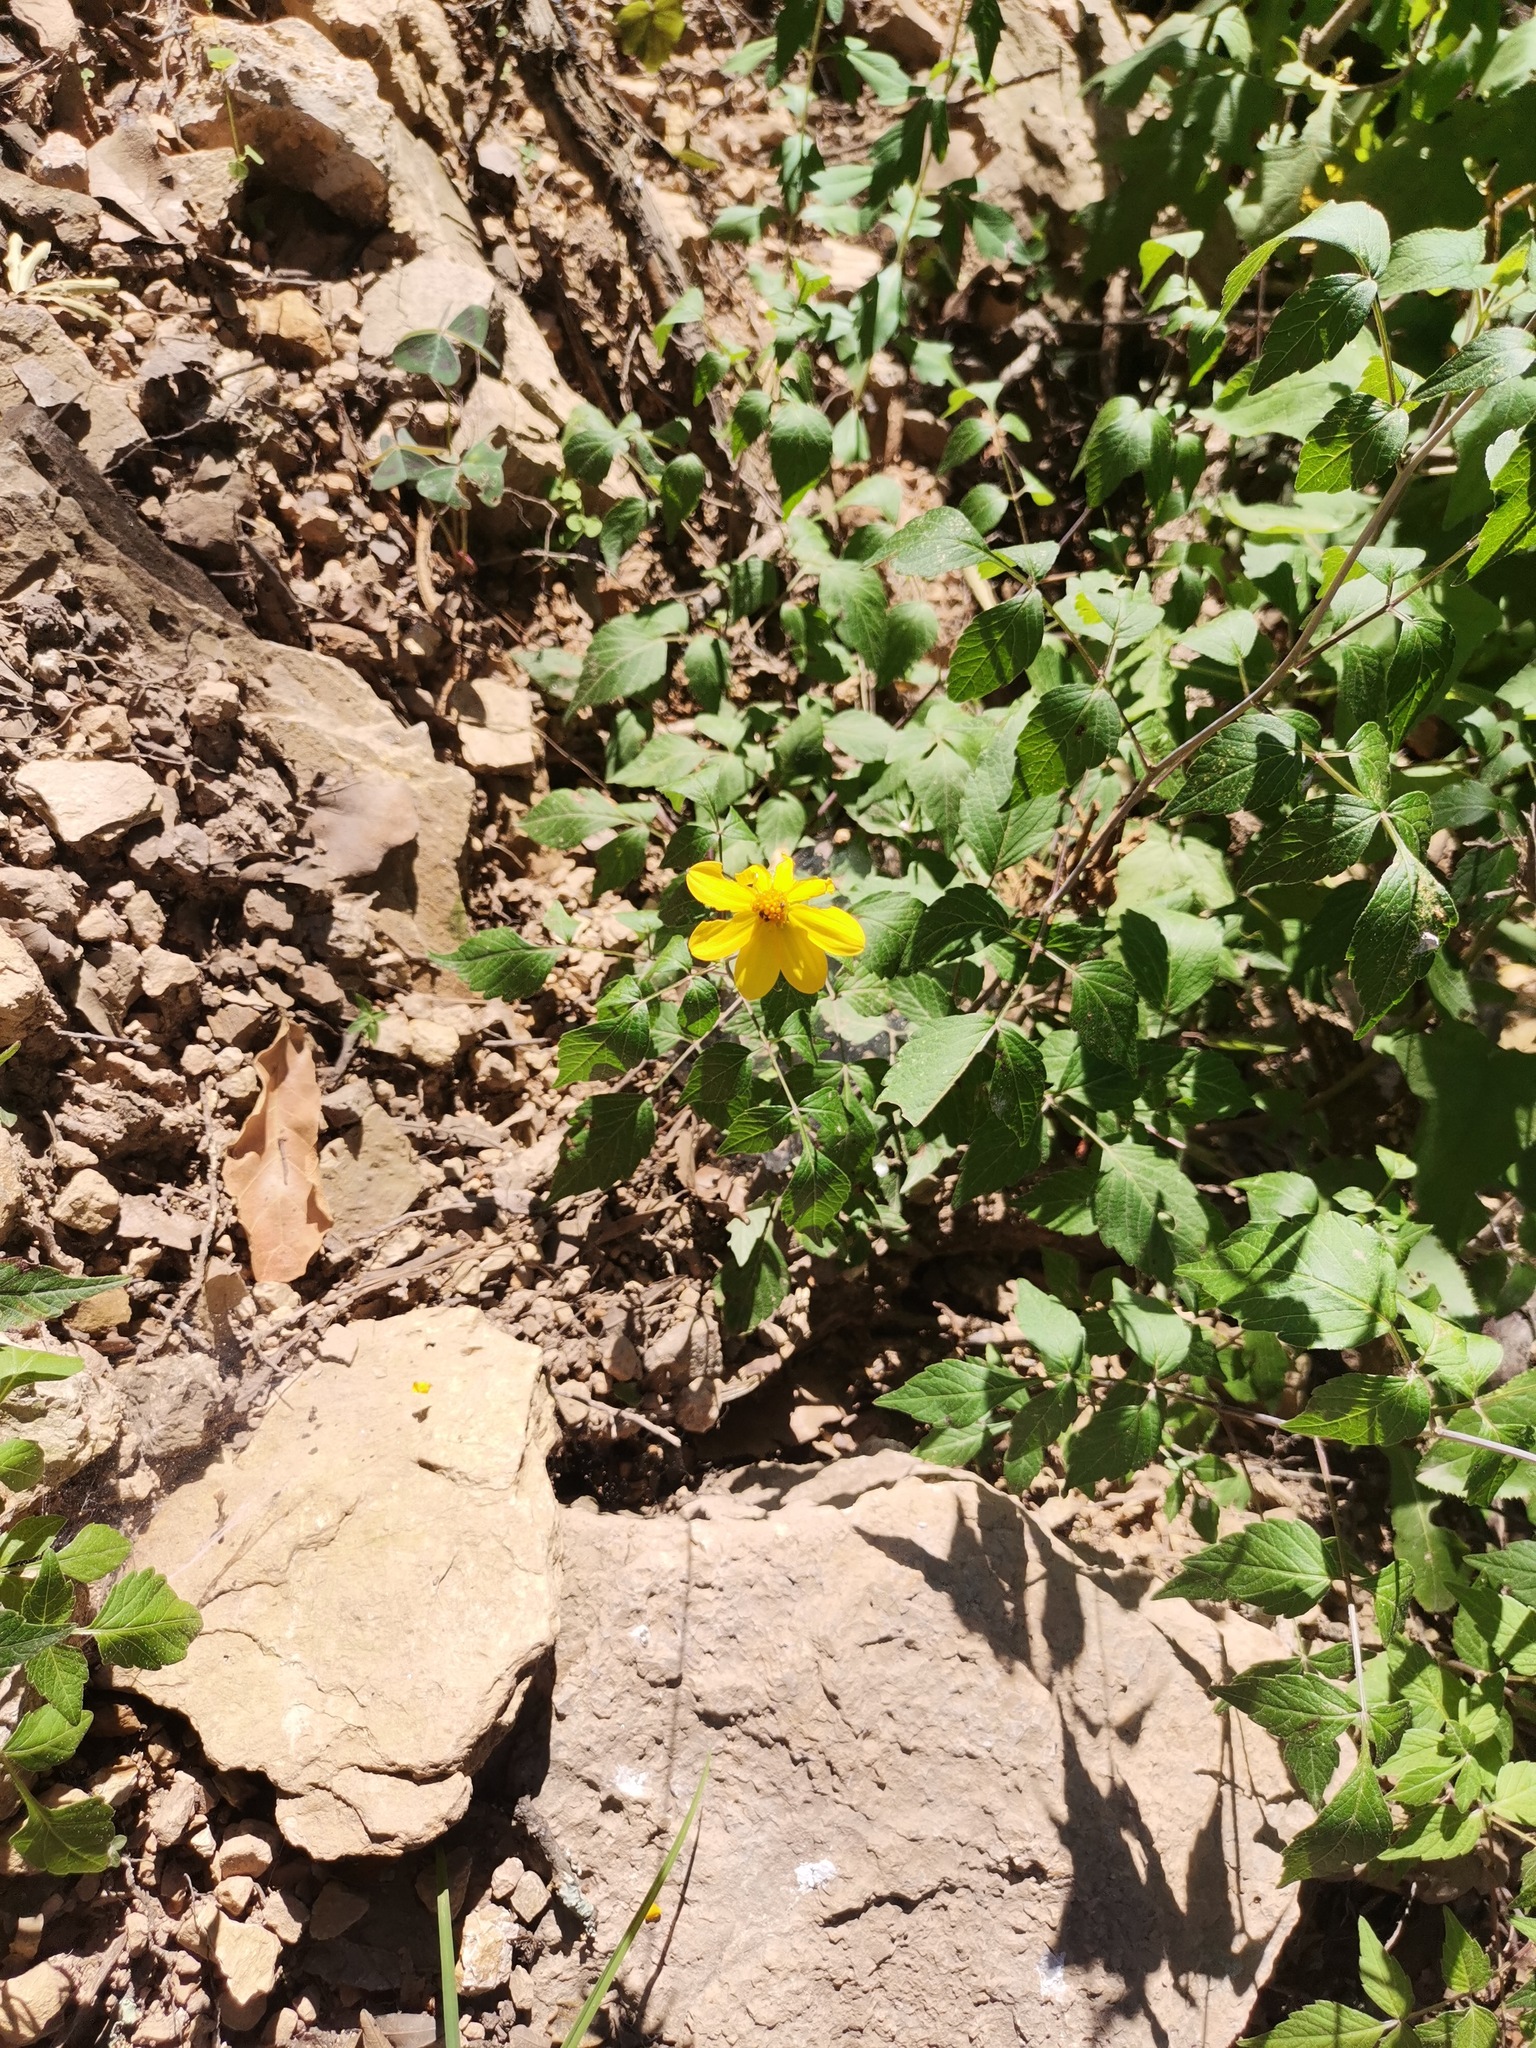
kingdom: Plantae
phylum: Tracheophyta
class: Magnoliopsida
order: Asterales
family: Asteraceae
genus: Dahlia
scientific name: Dahlia coccinea
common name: Red dahlia
